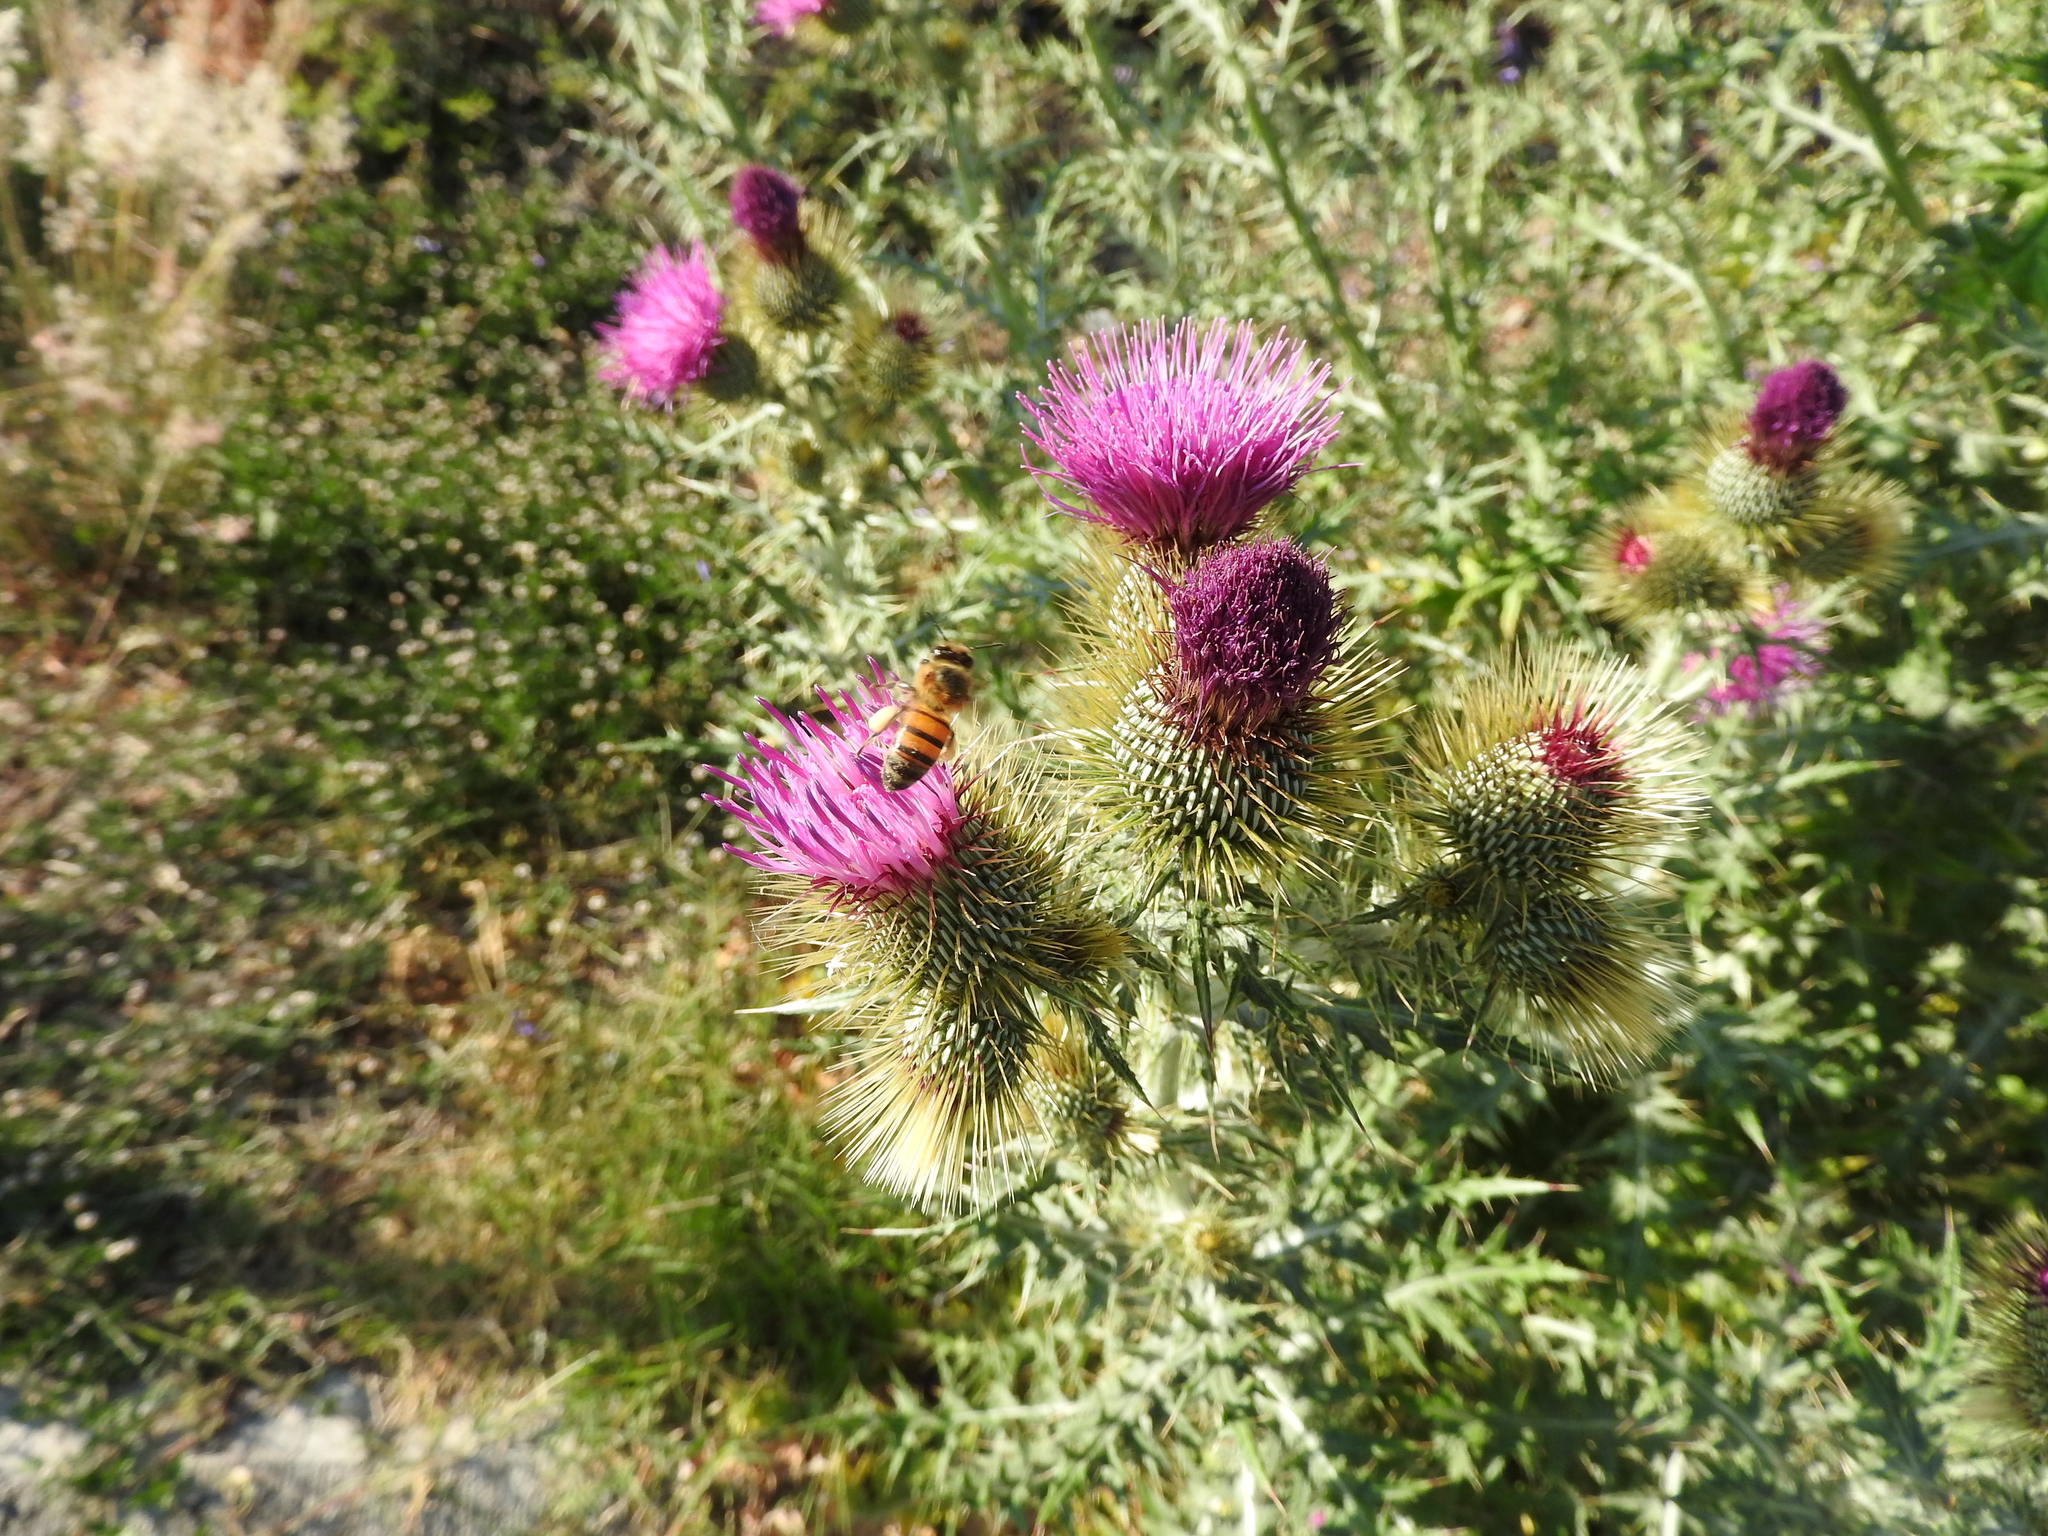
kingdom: Animalia
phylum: Arthropoda
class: Insecta
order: Hymenoptera
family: Apidae
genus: Apis
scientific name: Apis mellifera
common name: Honey bee
